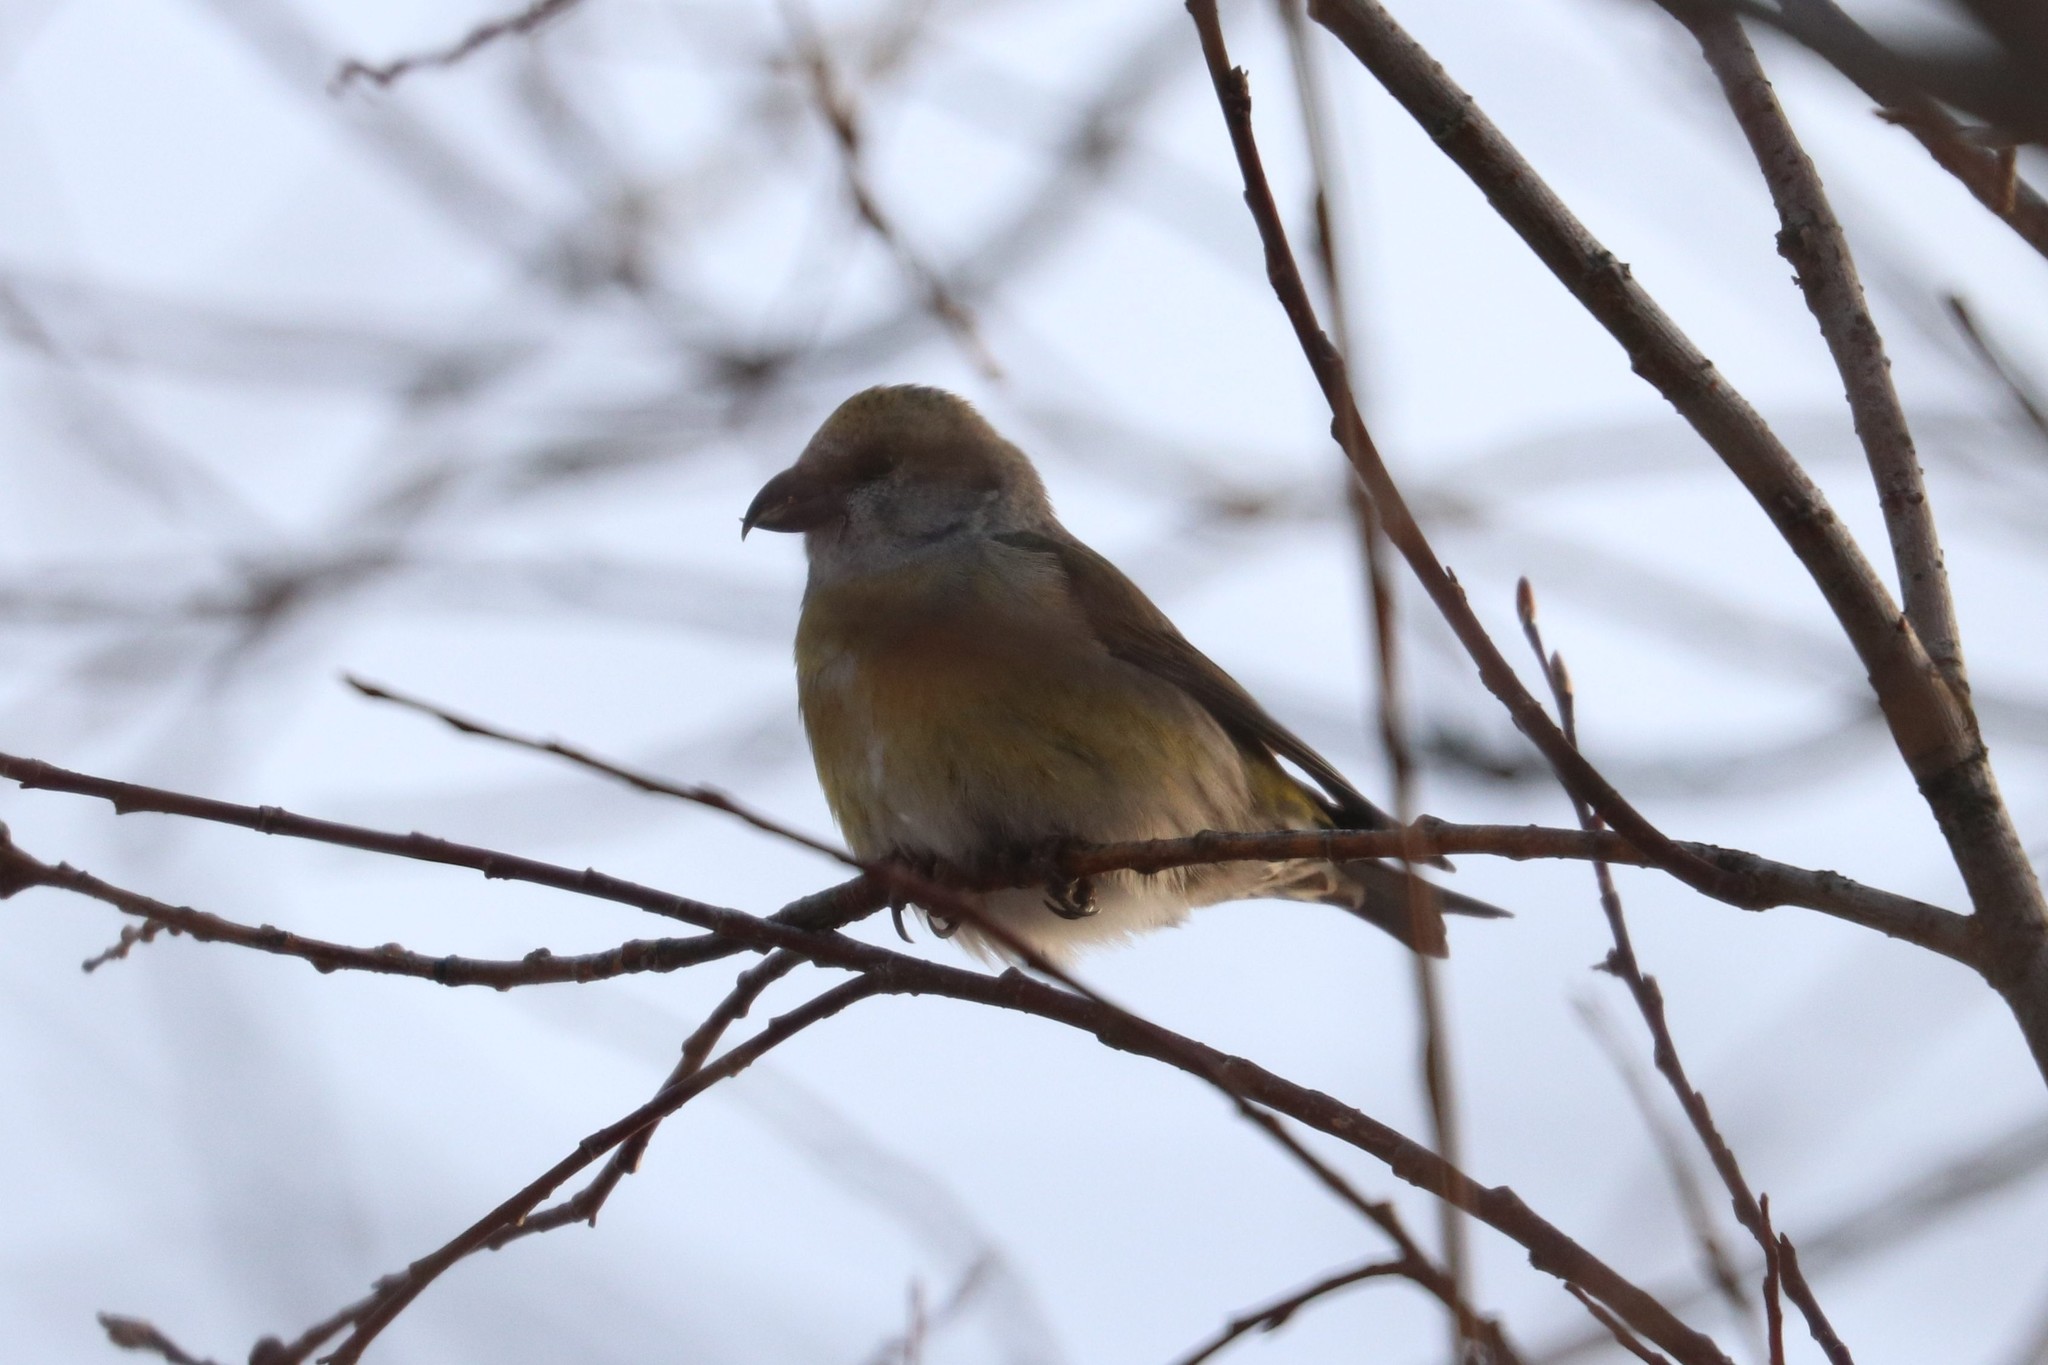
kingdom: Animalia
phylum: Chordata
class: Aves
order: Passeriformes
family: Fringillidae
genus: Loxia
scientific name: Loxia curvirostra
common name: Red crossbill
